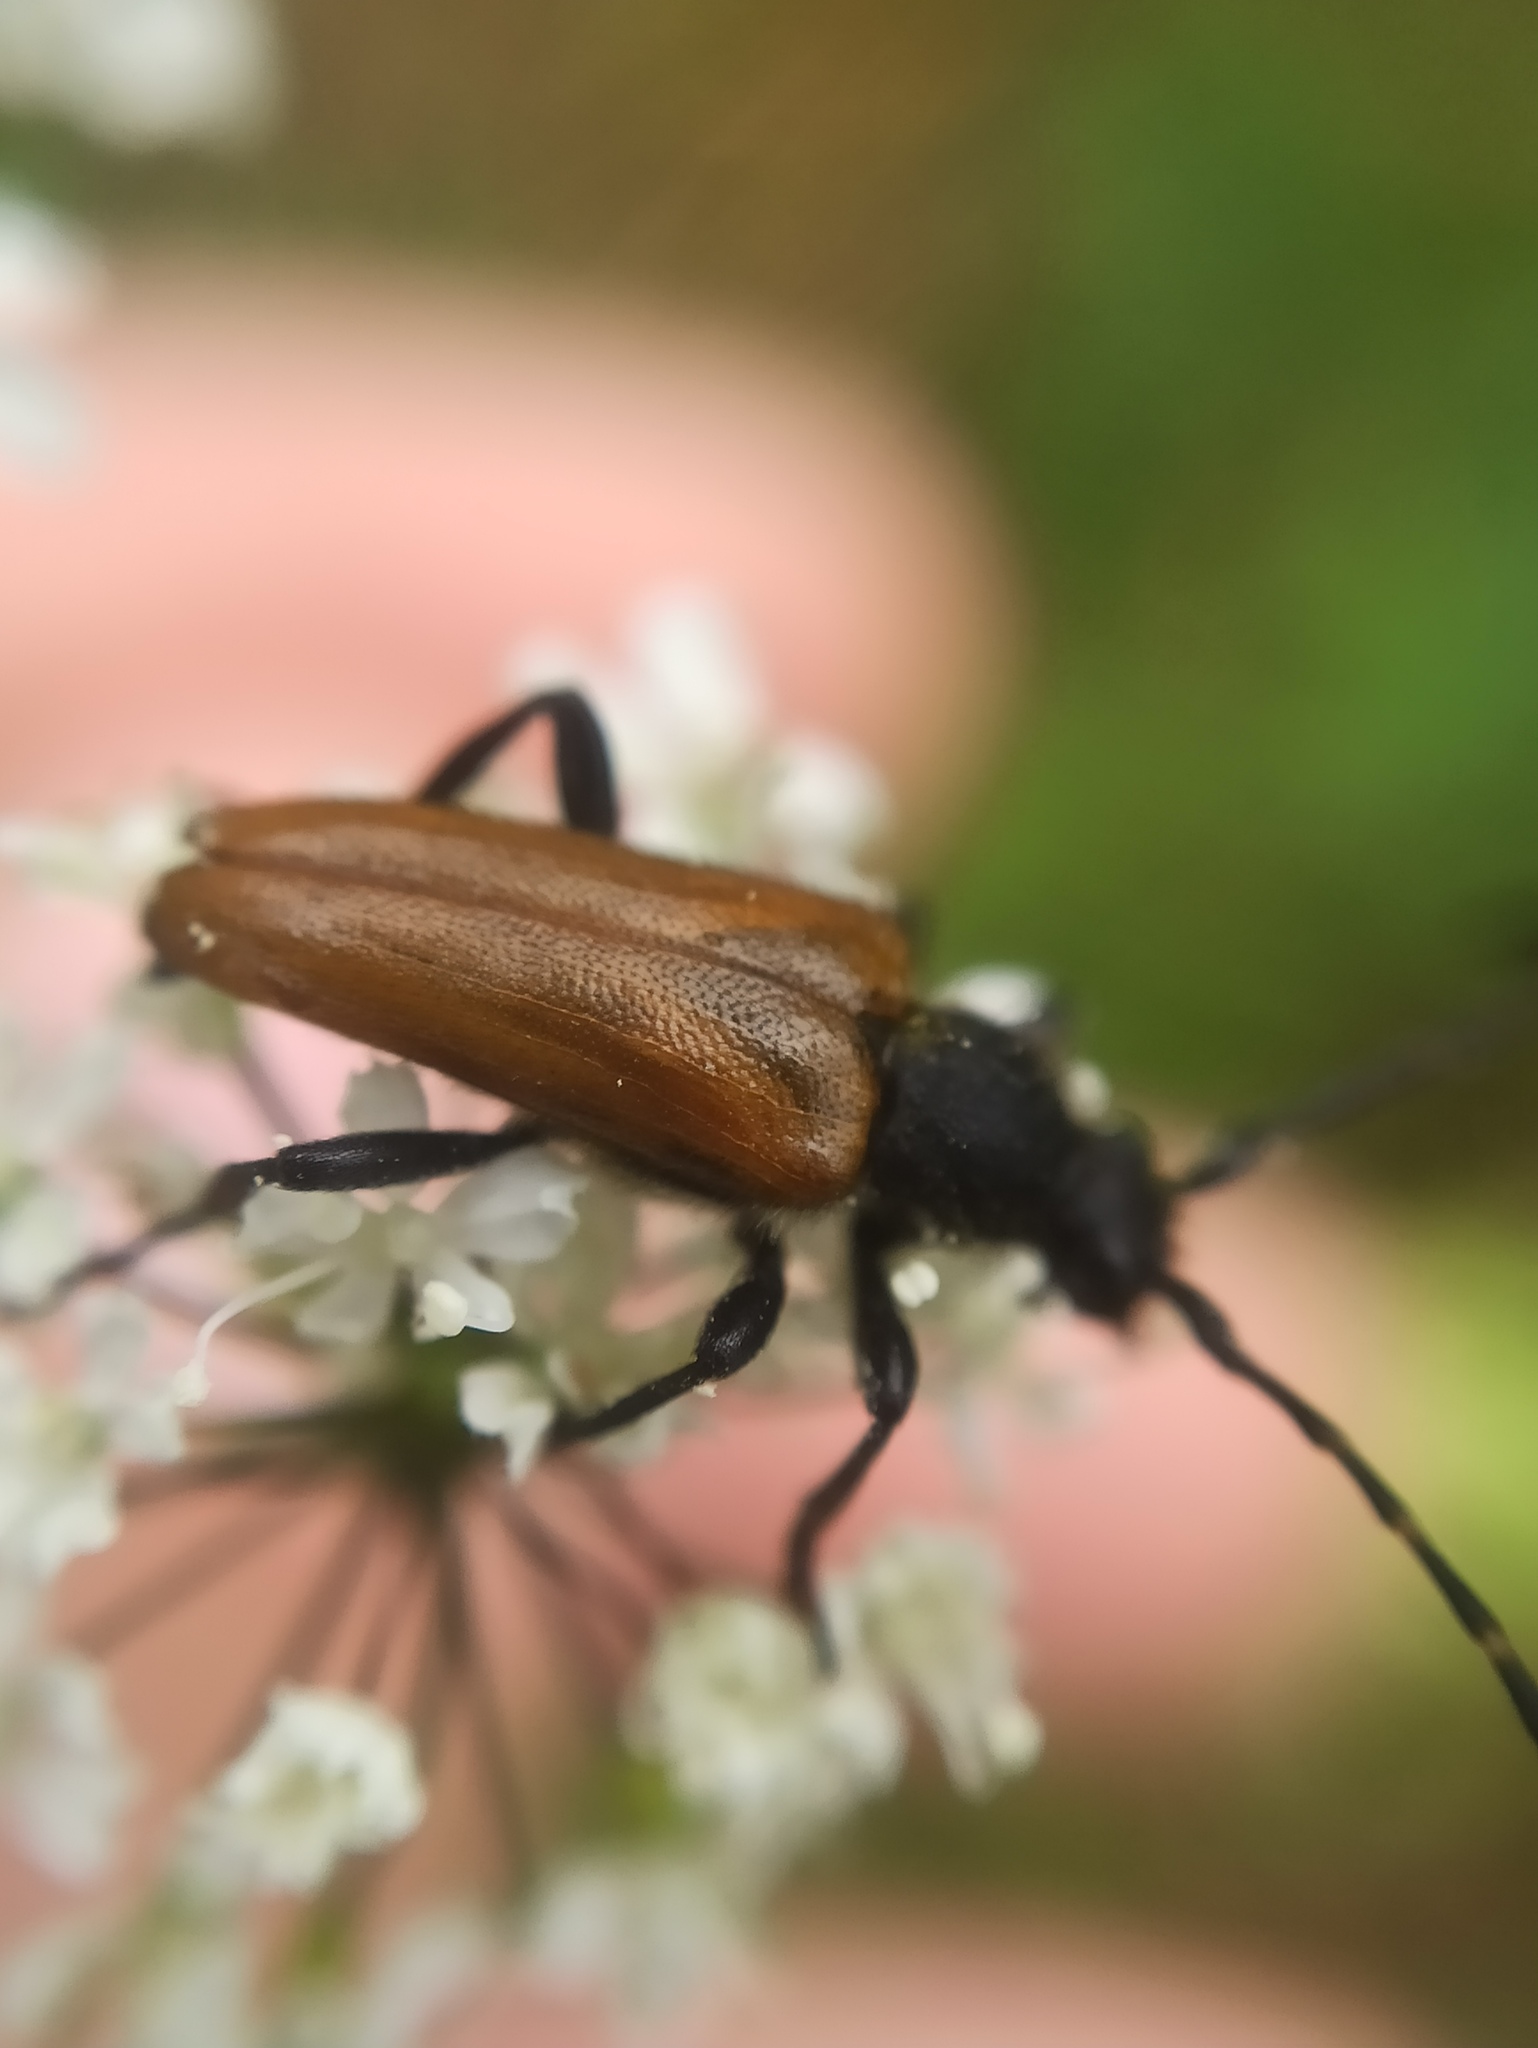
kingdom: Animalia
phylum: Arthropoda
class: Insecta
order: Coleoptera
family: Cerambycidae
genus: Paracorymbia
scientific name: Paracorymbia hybrida
